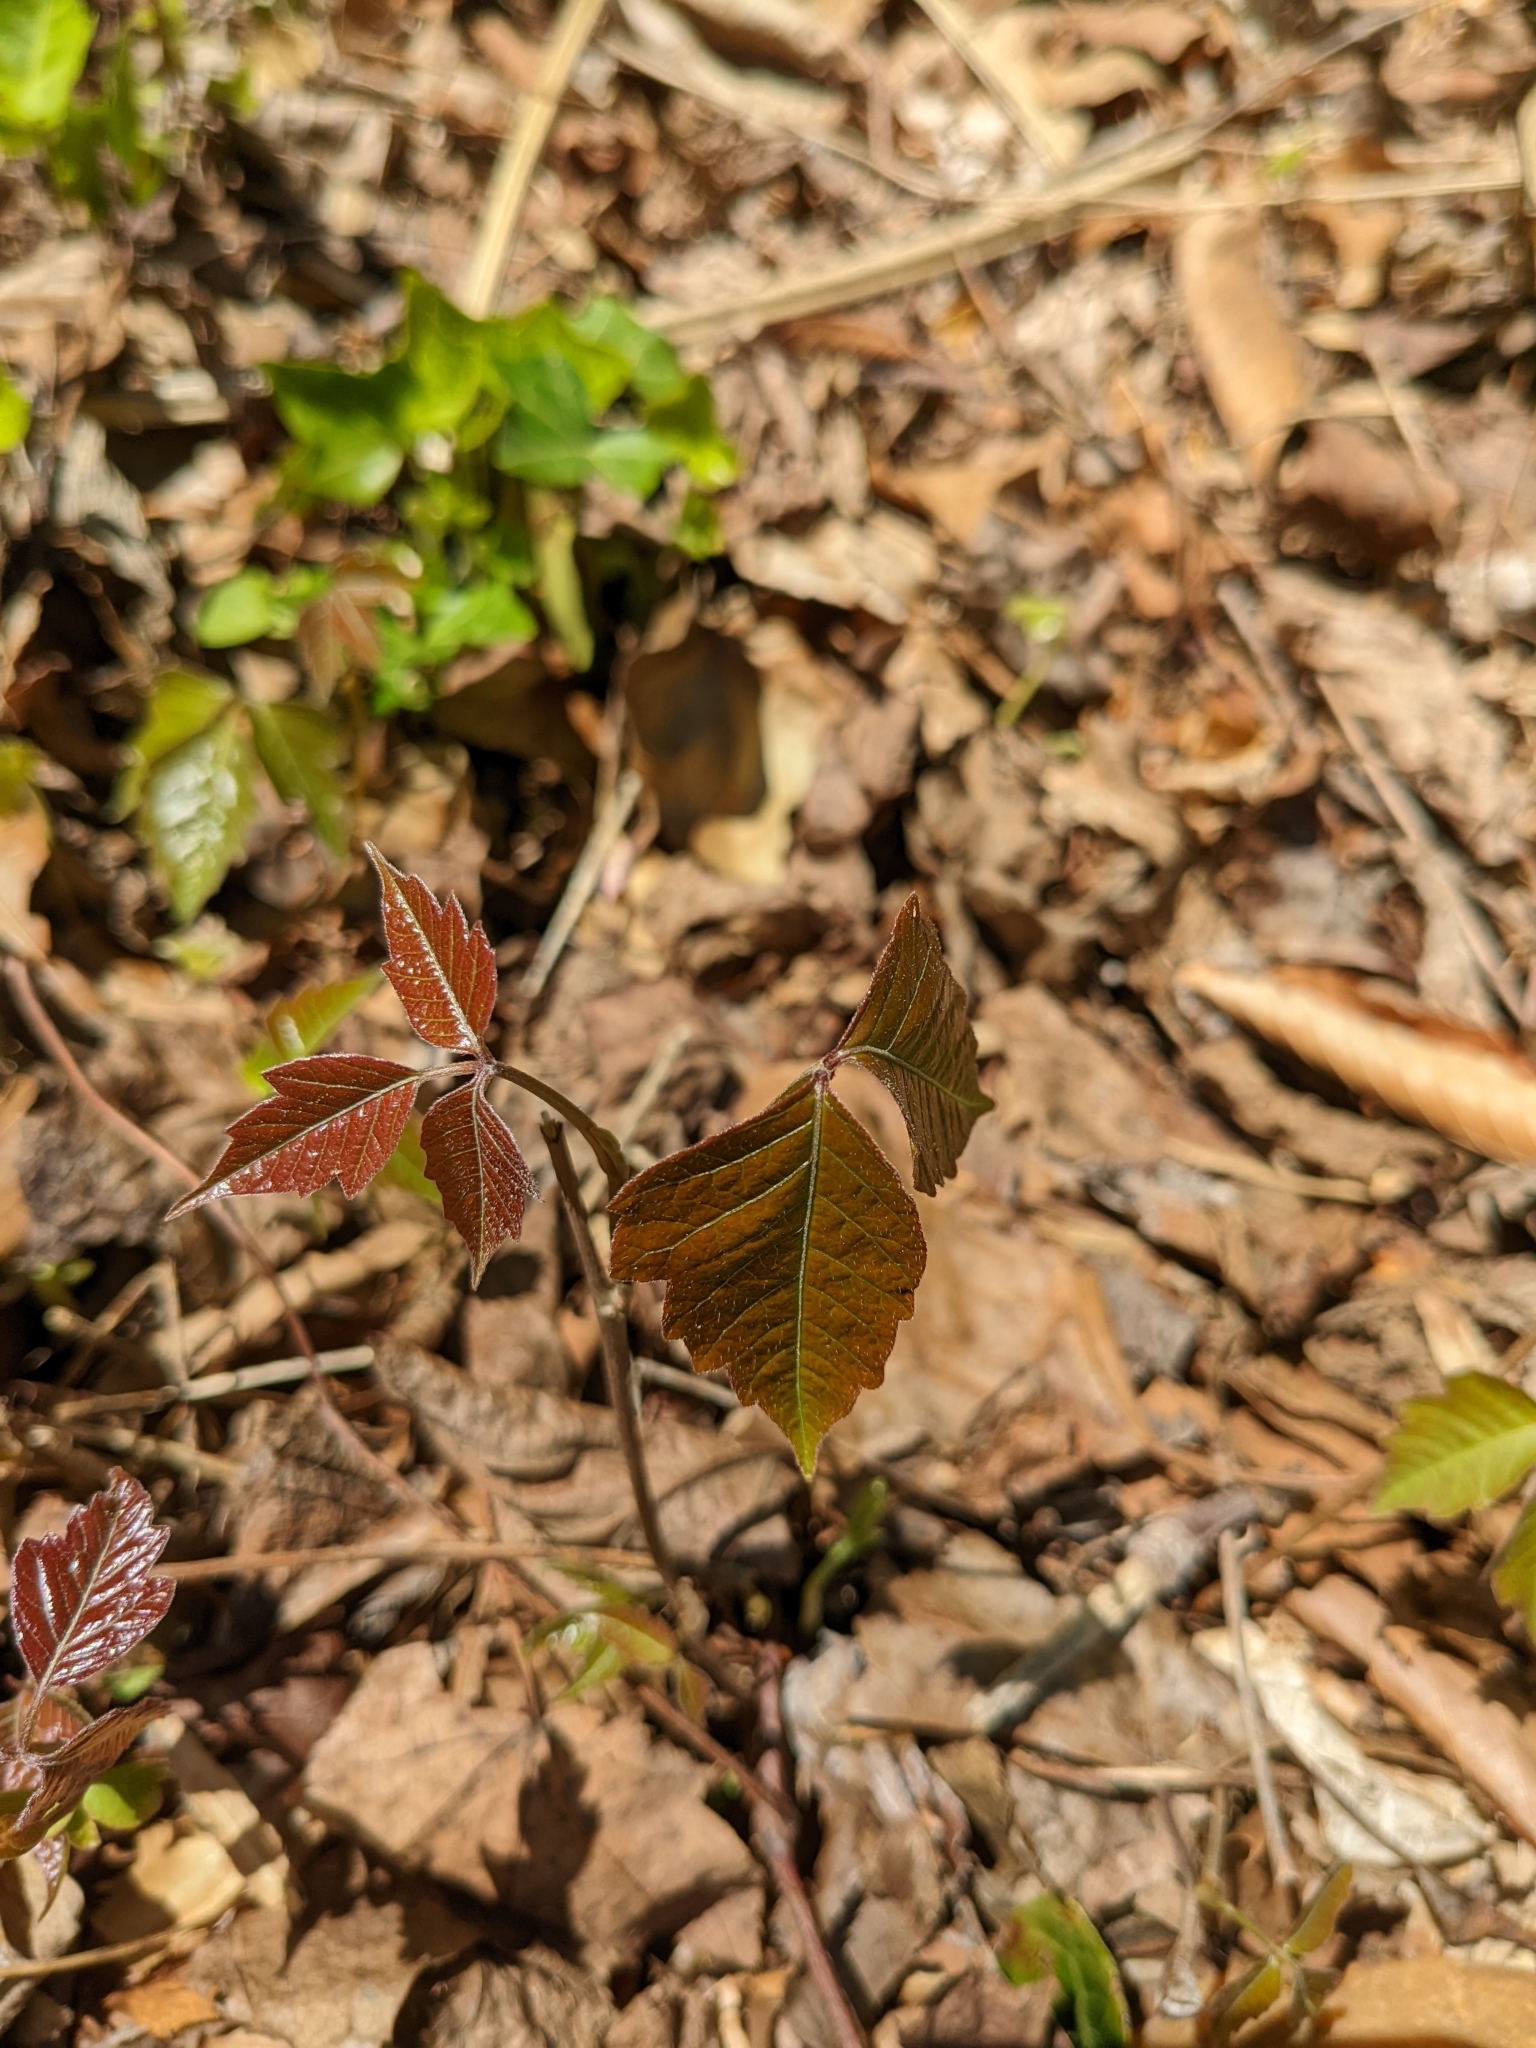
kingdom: Plantae
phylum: Tracheophyta
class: Magnoliopsida
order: Sapindales
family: Anacardiaceae
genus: Toxicodendron
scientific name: Toxicodendron radicans
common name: Poison ivy
